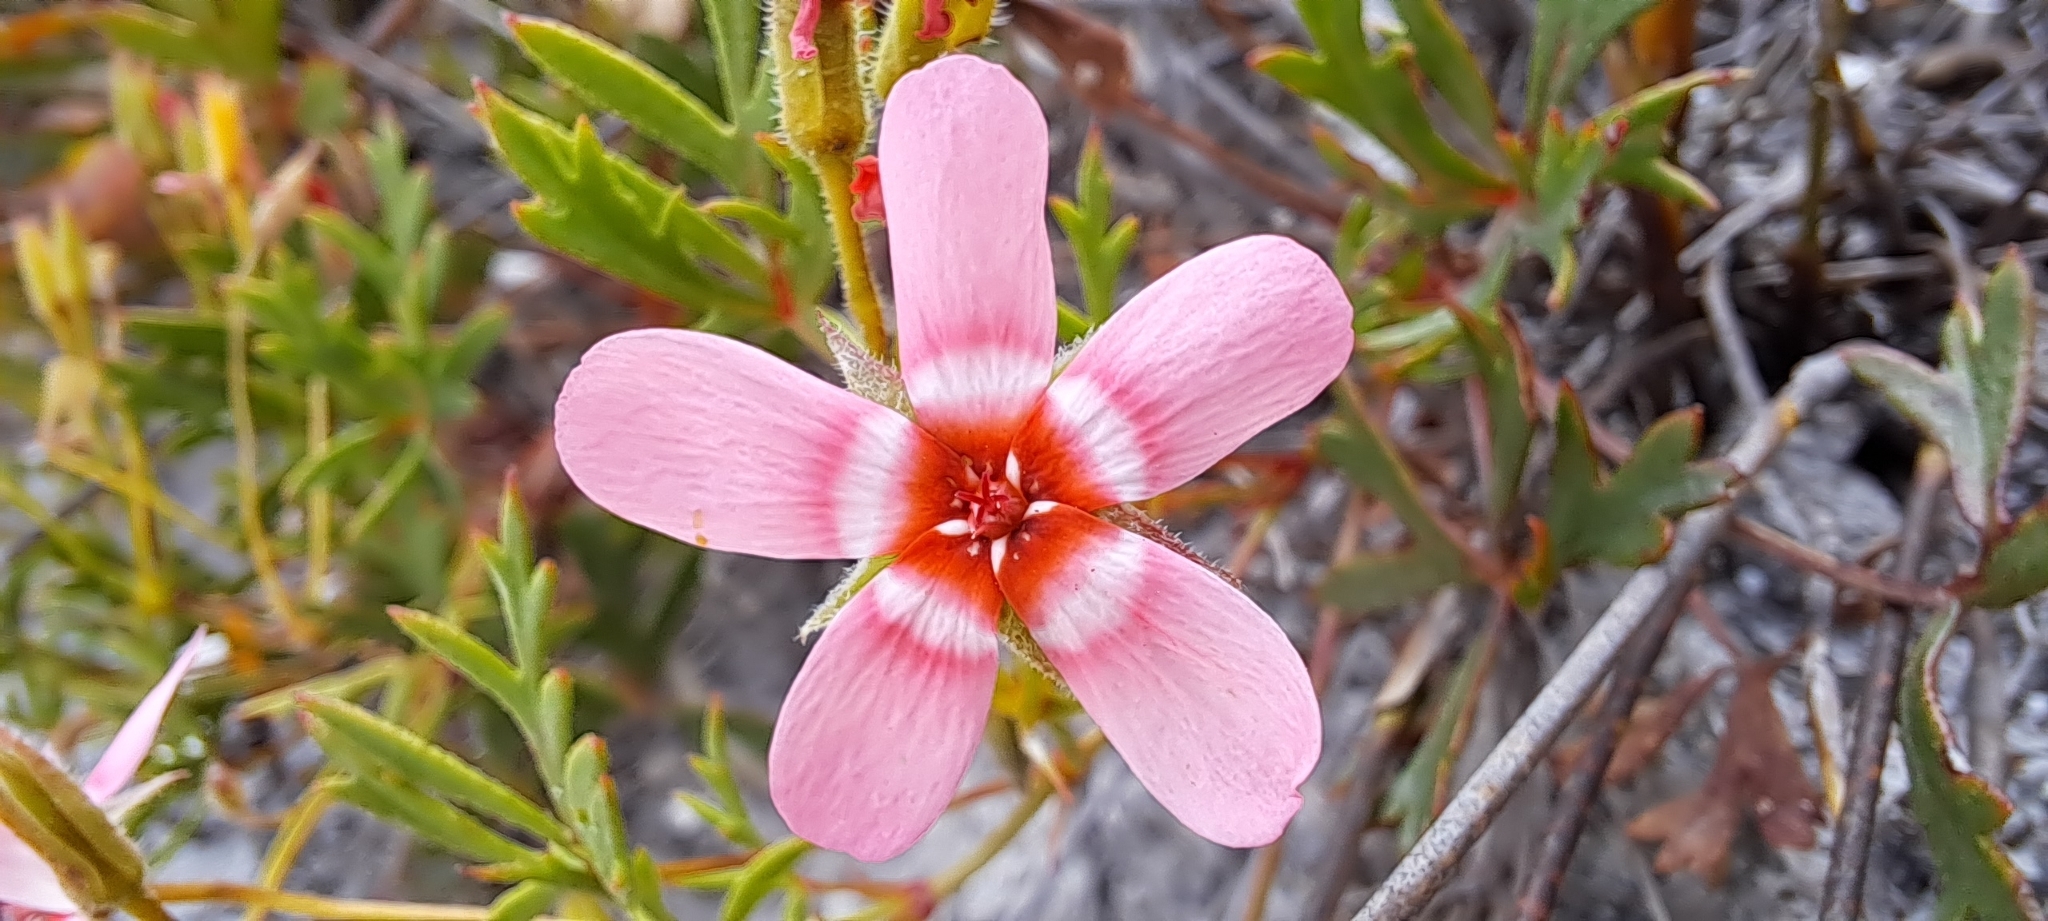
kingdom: Plantae
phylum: Tracheophyta
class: Magnoliopsida
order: Geraniales
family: Geraniaceae
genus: Pelargonium
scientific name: Pelargonium incarnatum
